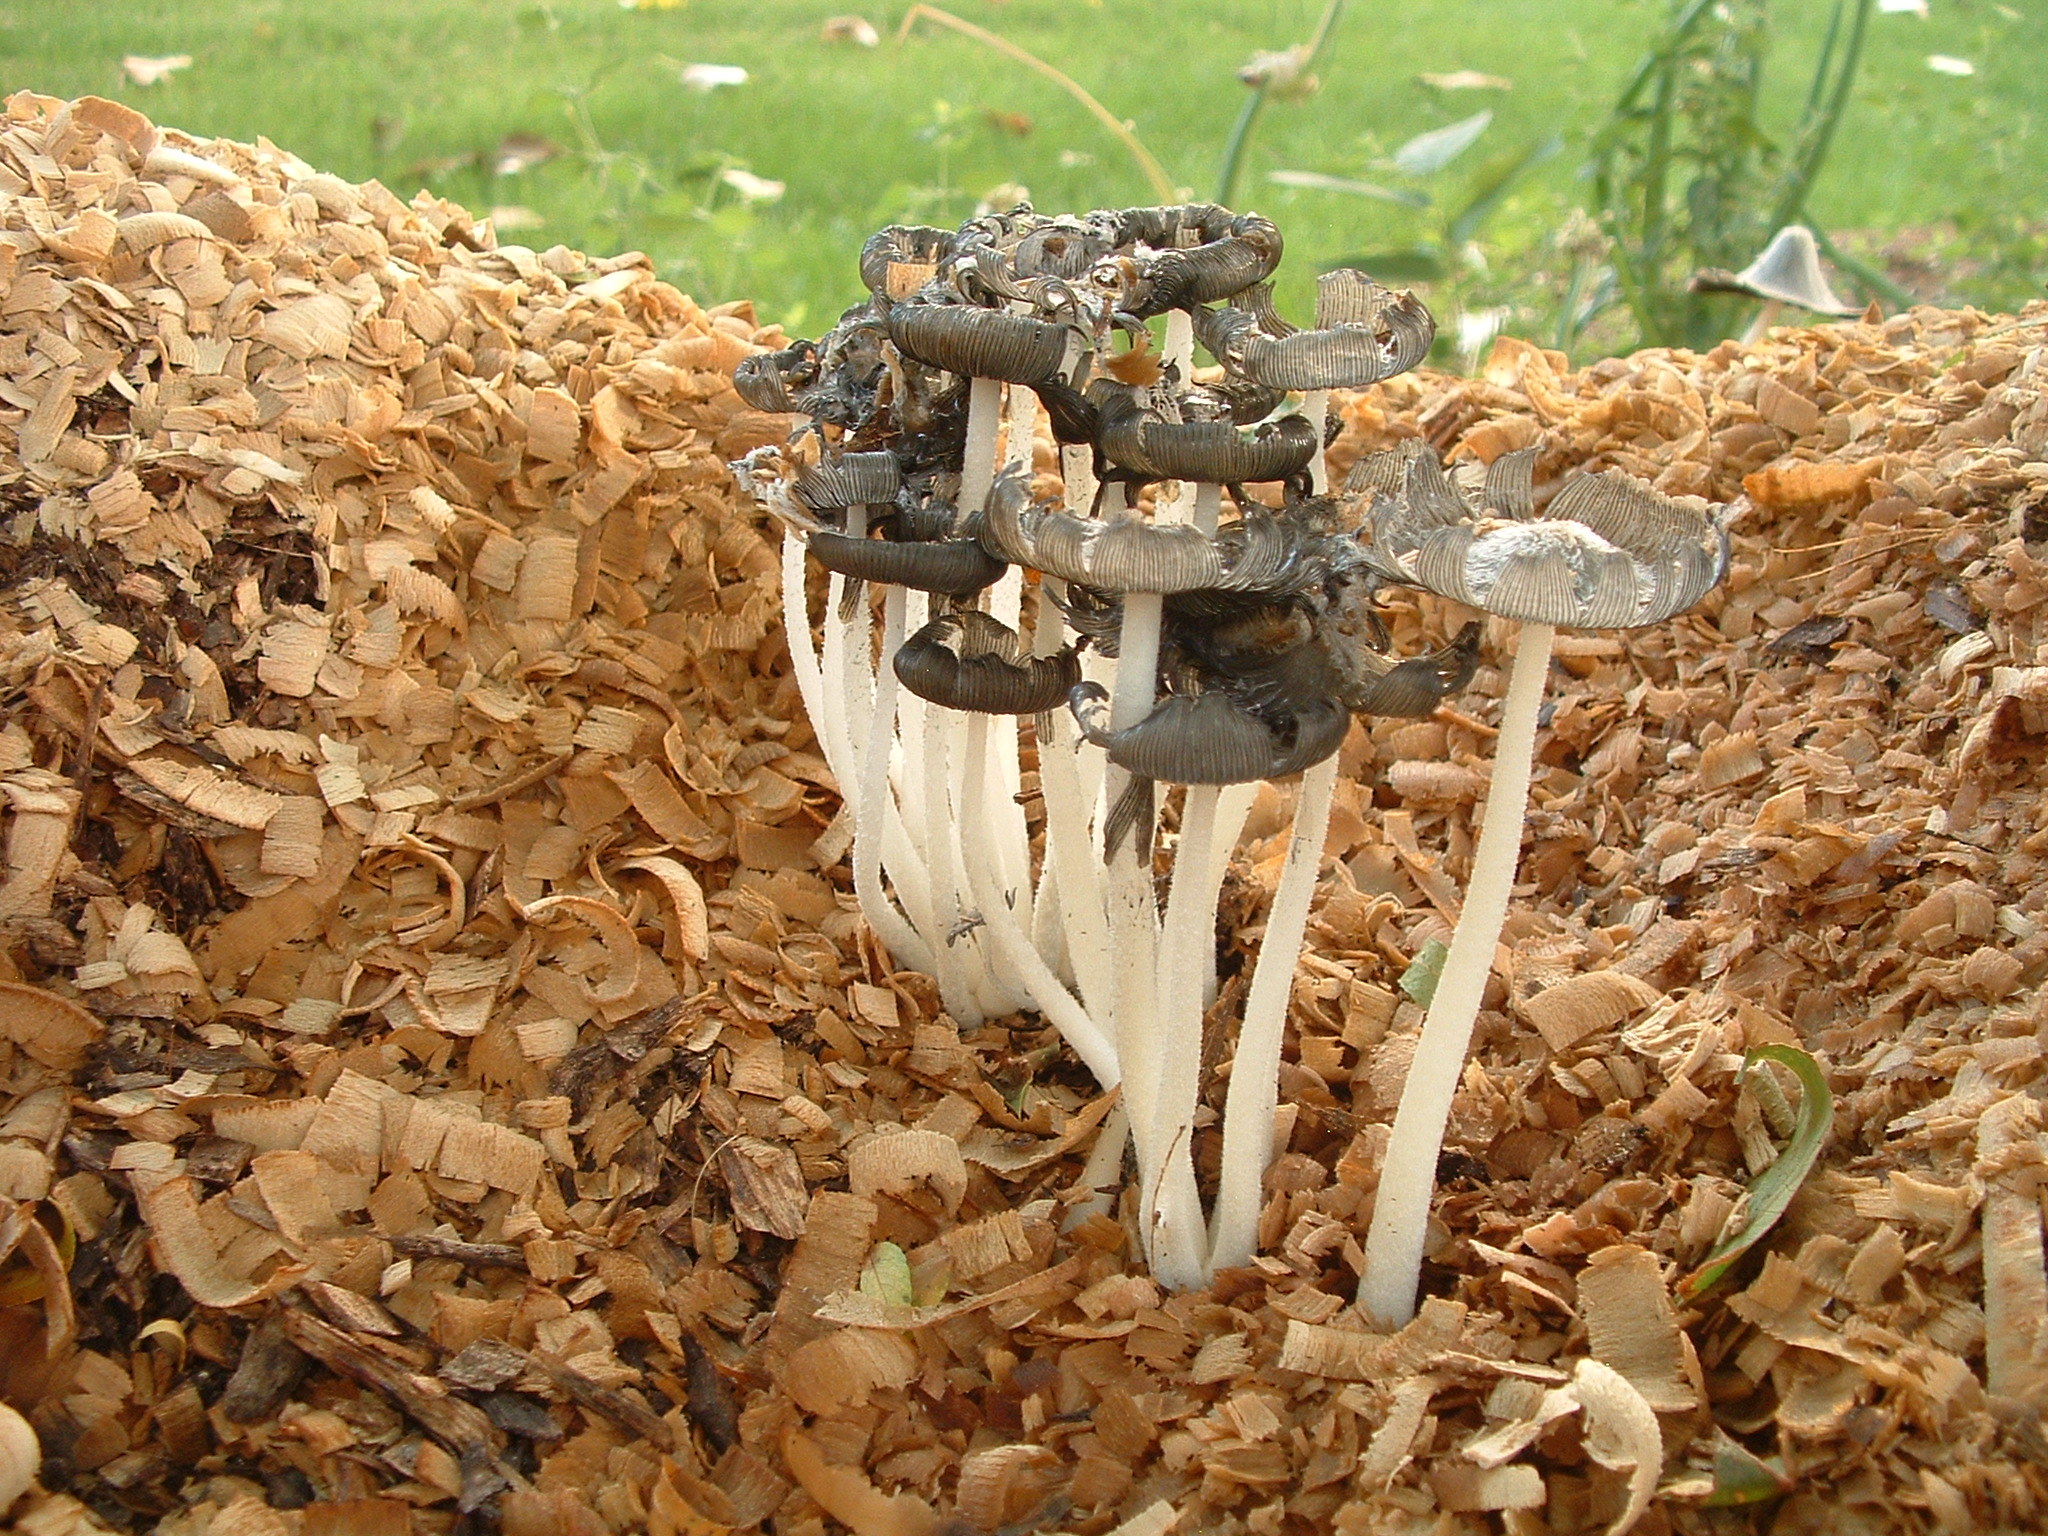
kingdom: Fungi
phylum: Basidiomycota
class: Agaricomycetes
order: Agaricales
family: Psathyrellaceae
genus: Coprinopsis
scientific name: Coprinopsis lagopus
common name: Hare'sfoot inkcap
